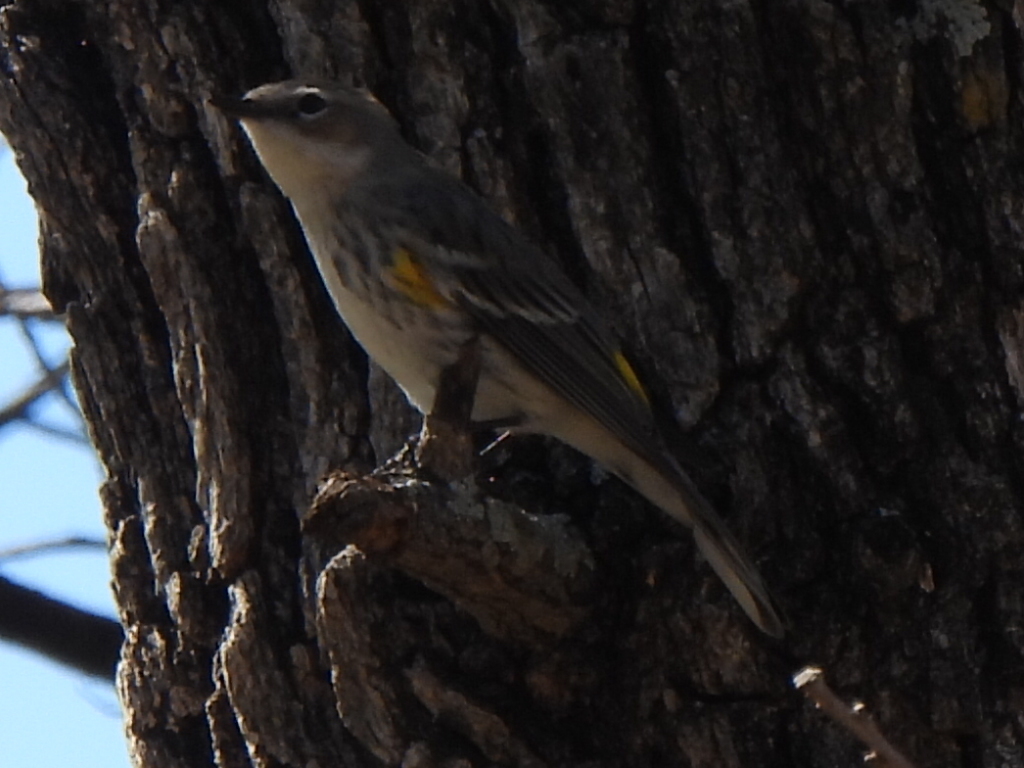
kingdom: Animalia
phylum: Chordata
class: Aves
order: Passeriformes
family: Parulidae
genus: Setophaga
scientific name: Setophaga coronata
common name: Myrtle warbler
